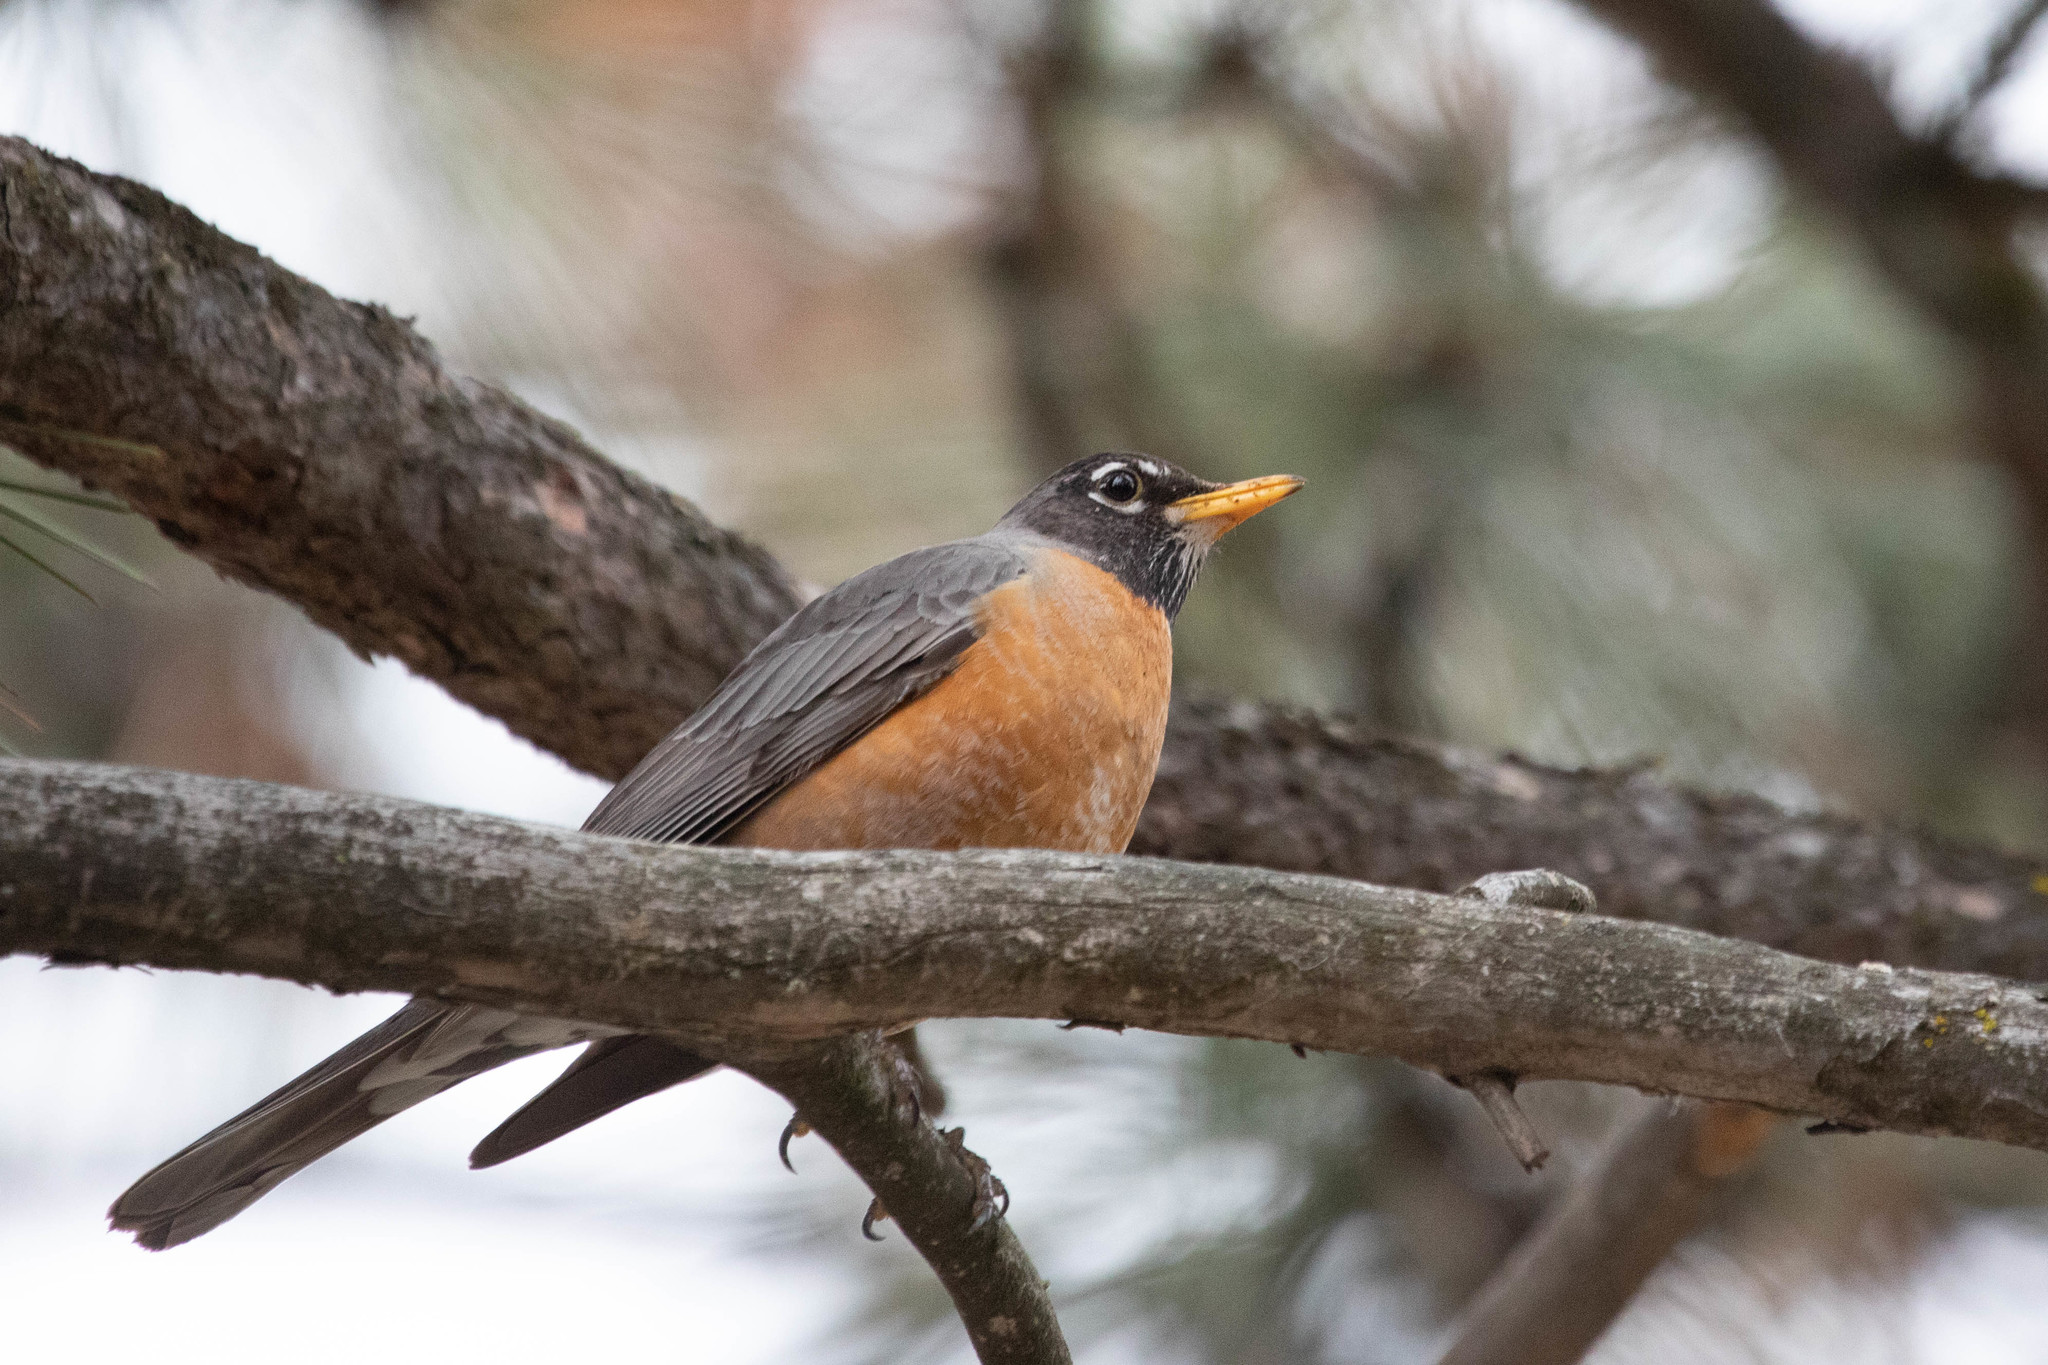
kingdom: Animalia
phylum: Chordata
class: Aves
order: Passeriformes
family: Turdidae
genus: Turdus
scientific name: Turdus migratorius
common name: American robin
